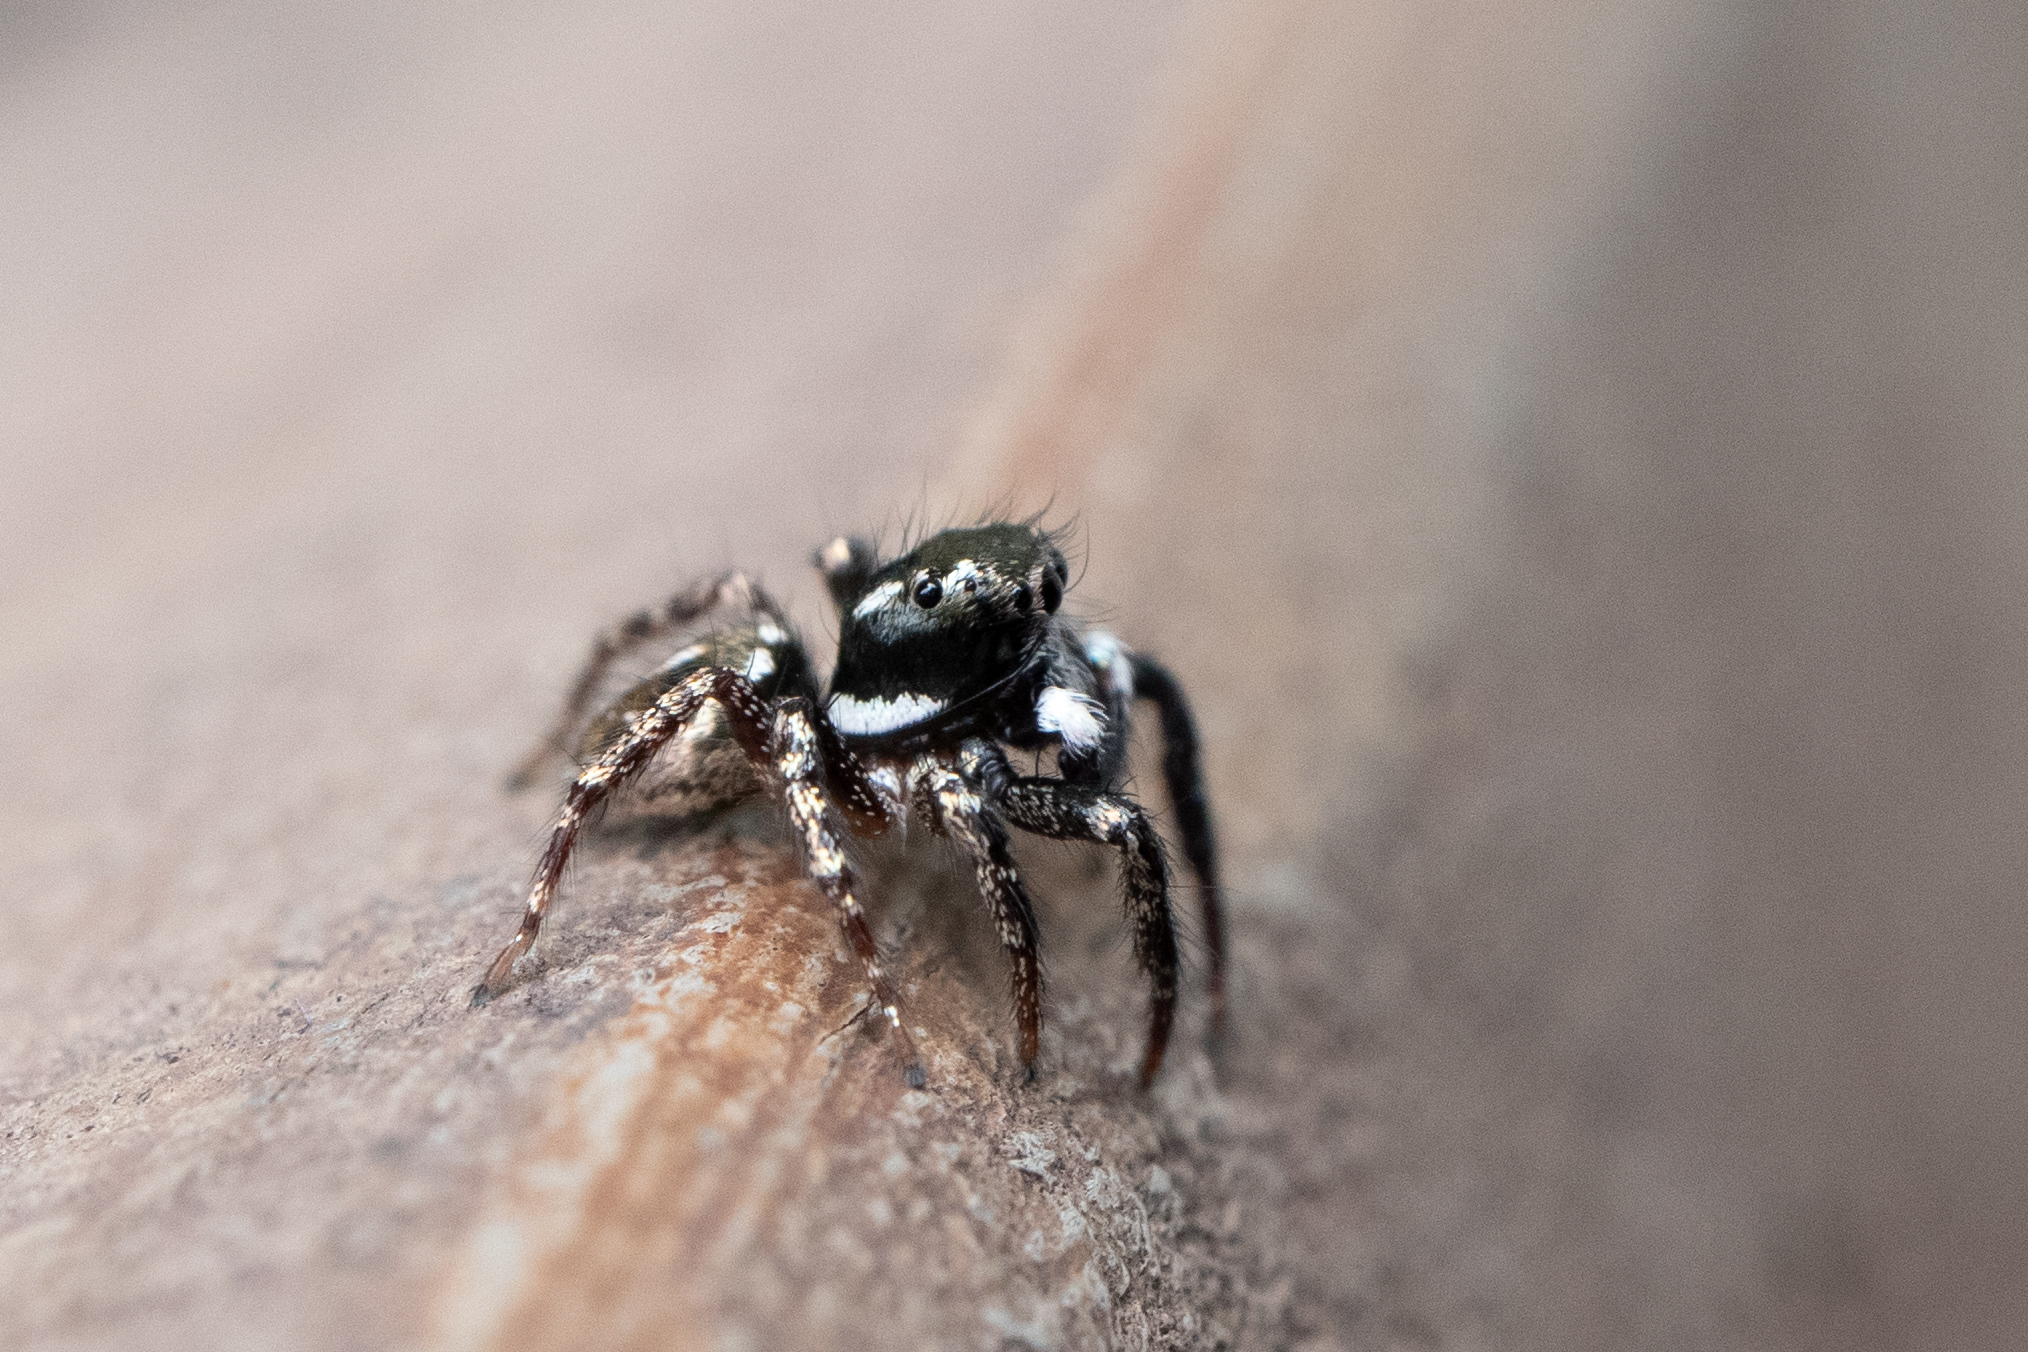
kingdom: Animalia
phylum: Arthropoda
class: Arachnida
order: Araneae
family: Salticidae
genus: Anasaitis
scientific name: Anasaitis canosa
